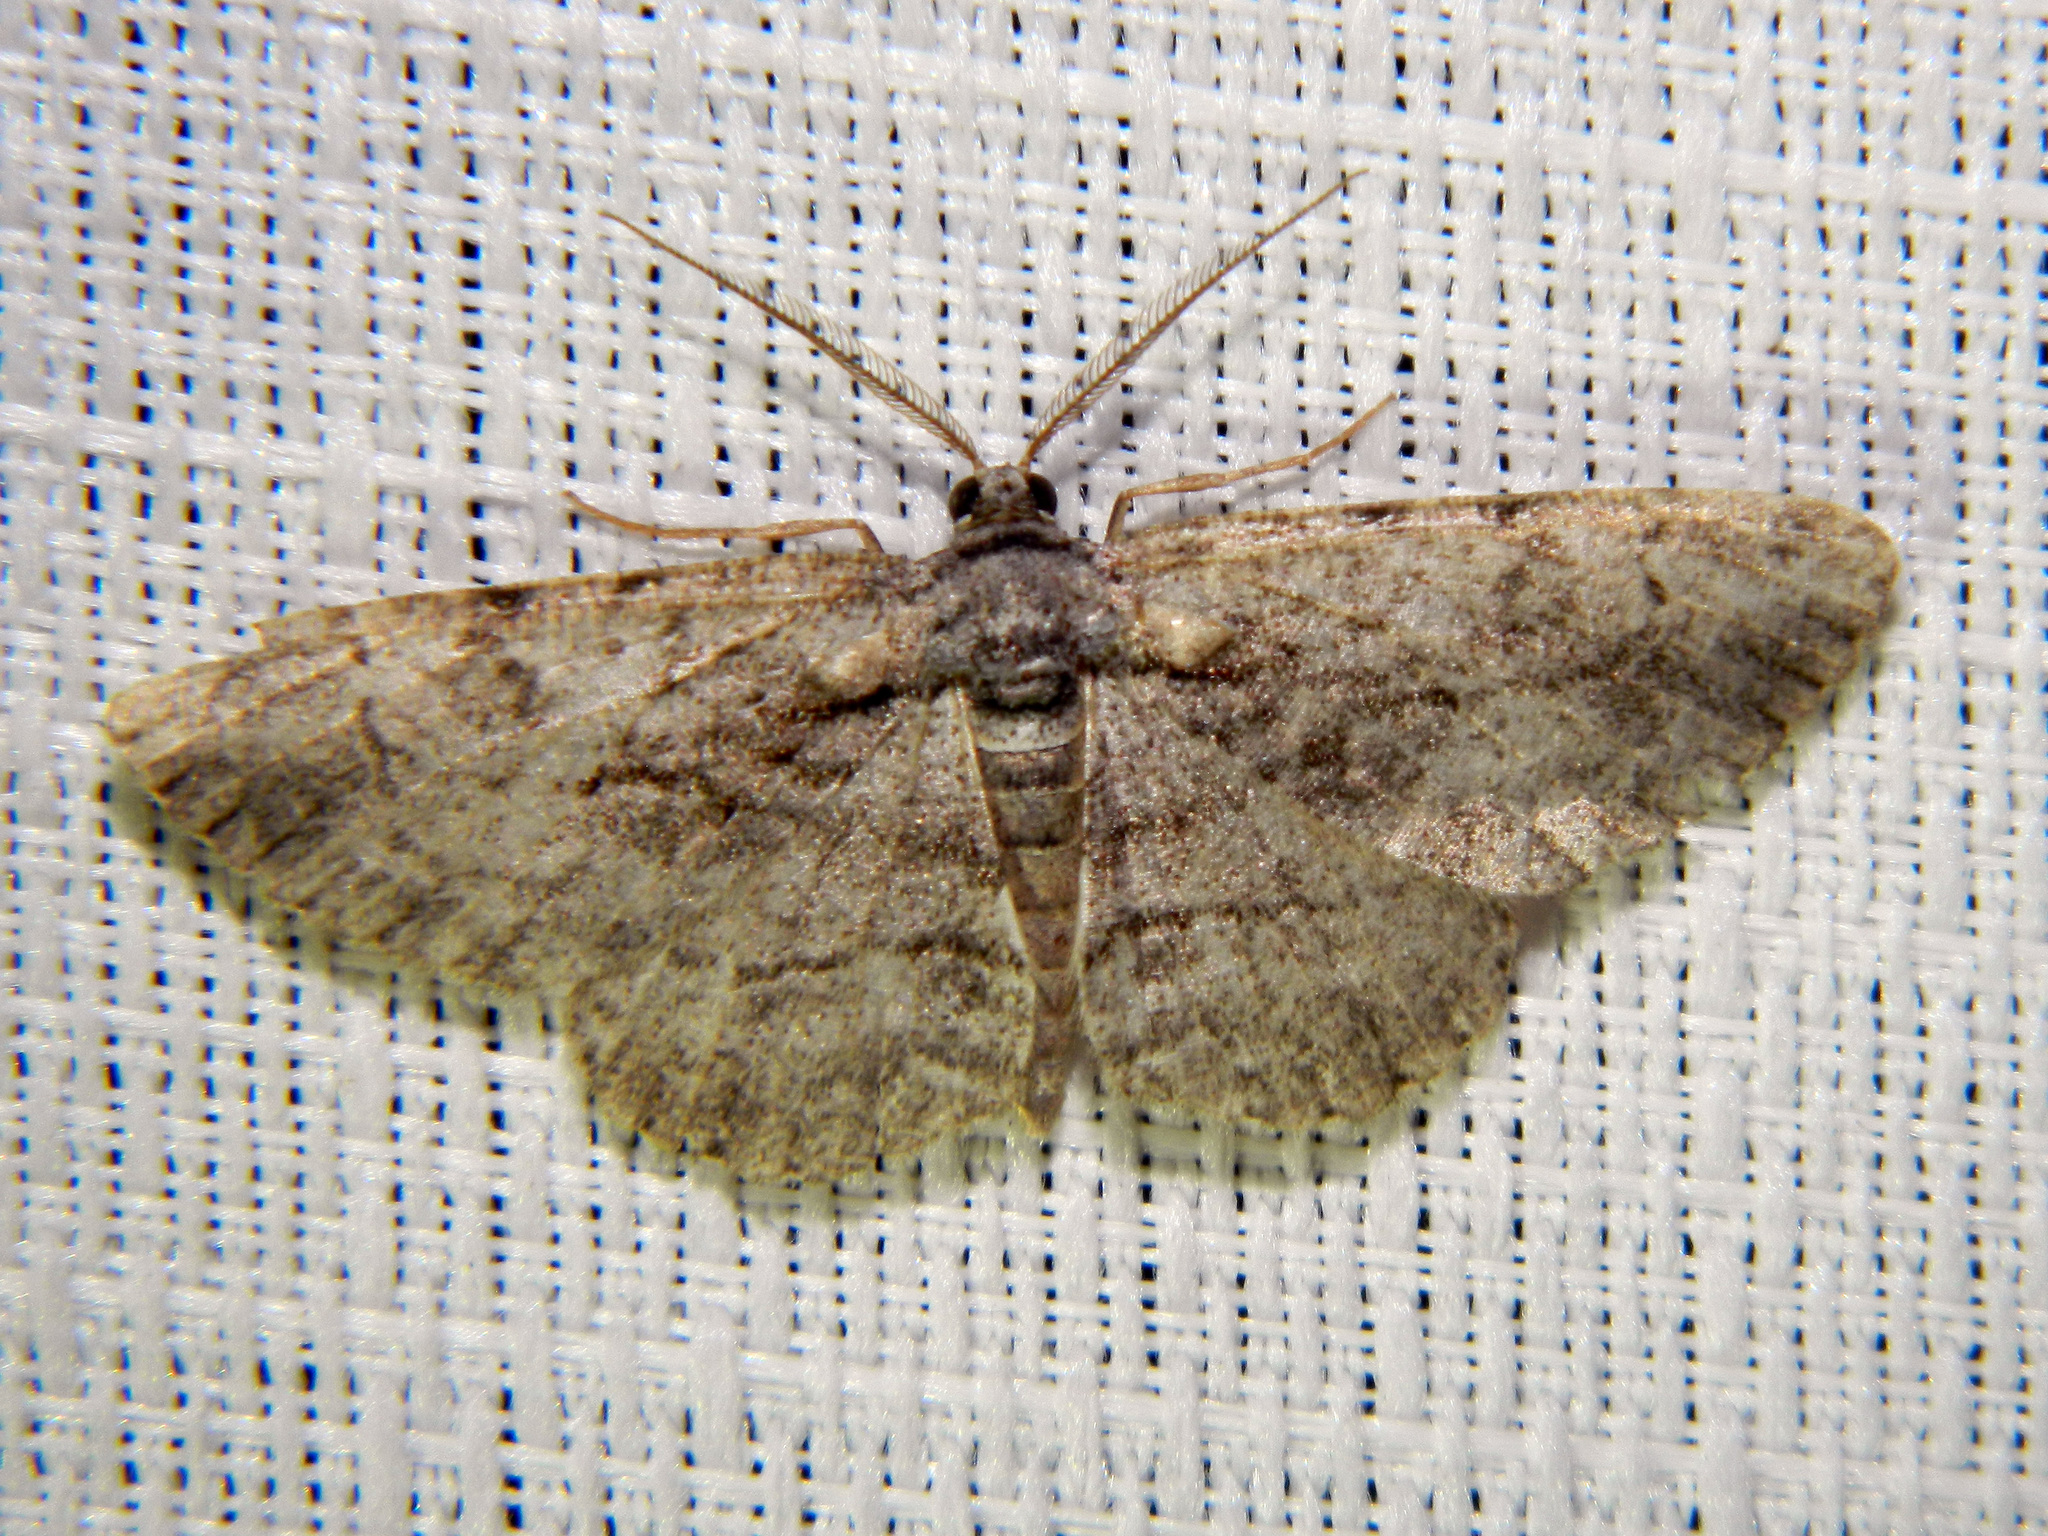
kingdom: Animalia
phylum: Arthropoda
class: Insecta
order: Lepidoptera
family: Geometridae
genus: Anavitrinella
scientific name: Anavitrinella pampinaria
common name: Common gray
